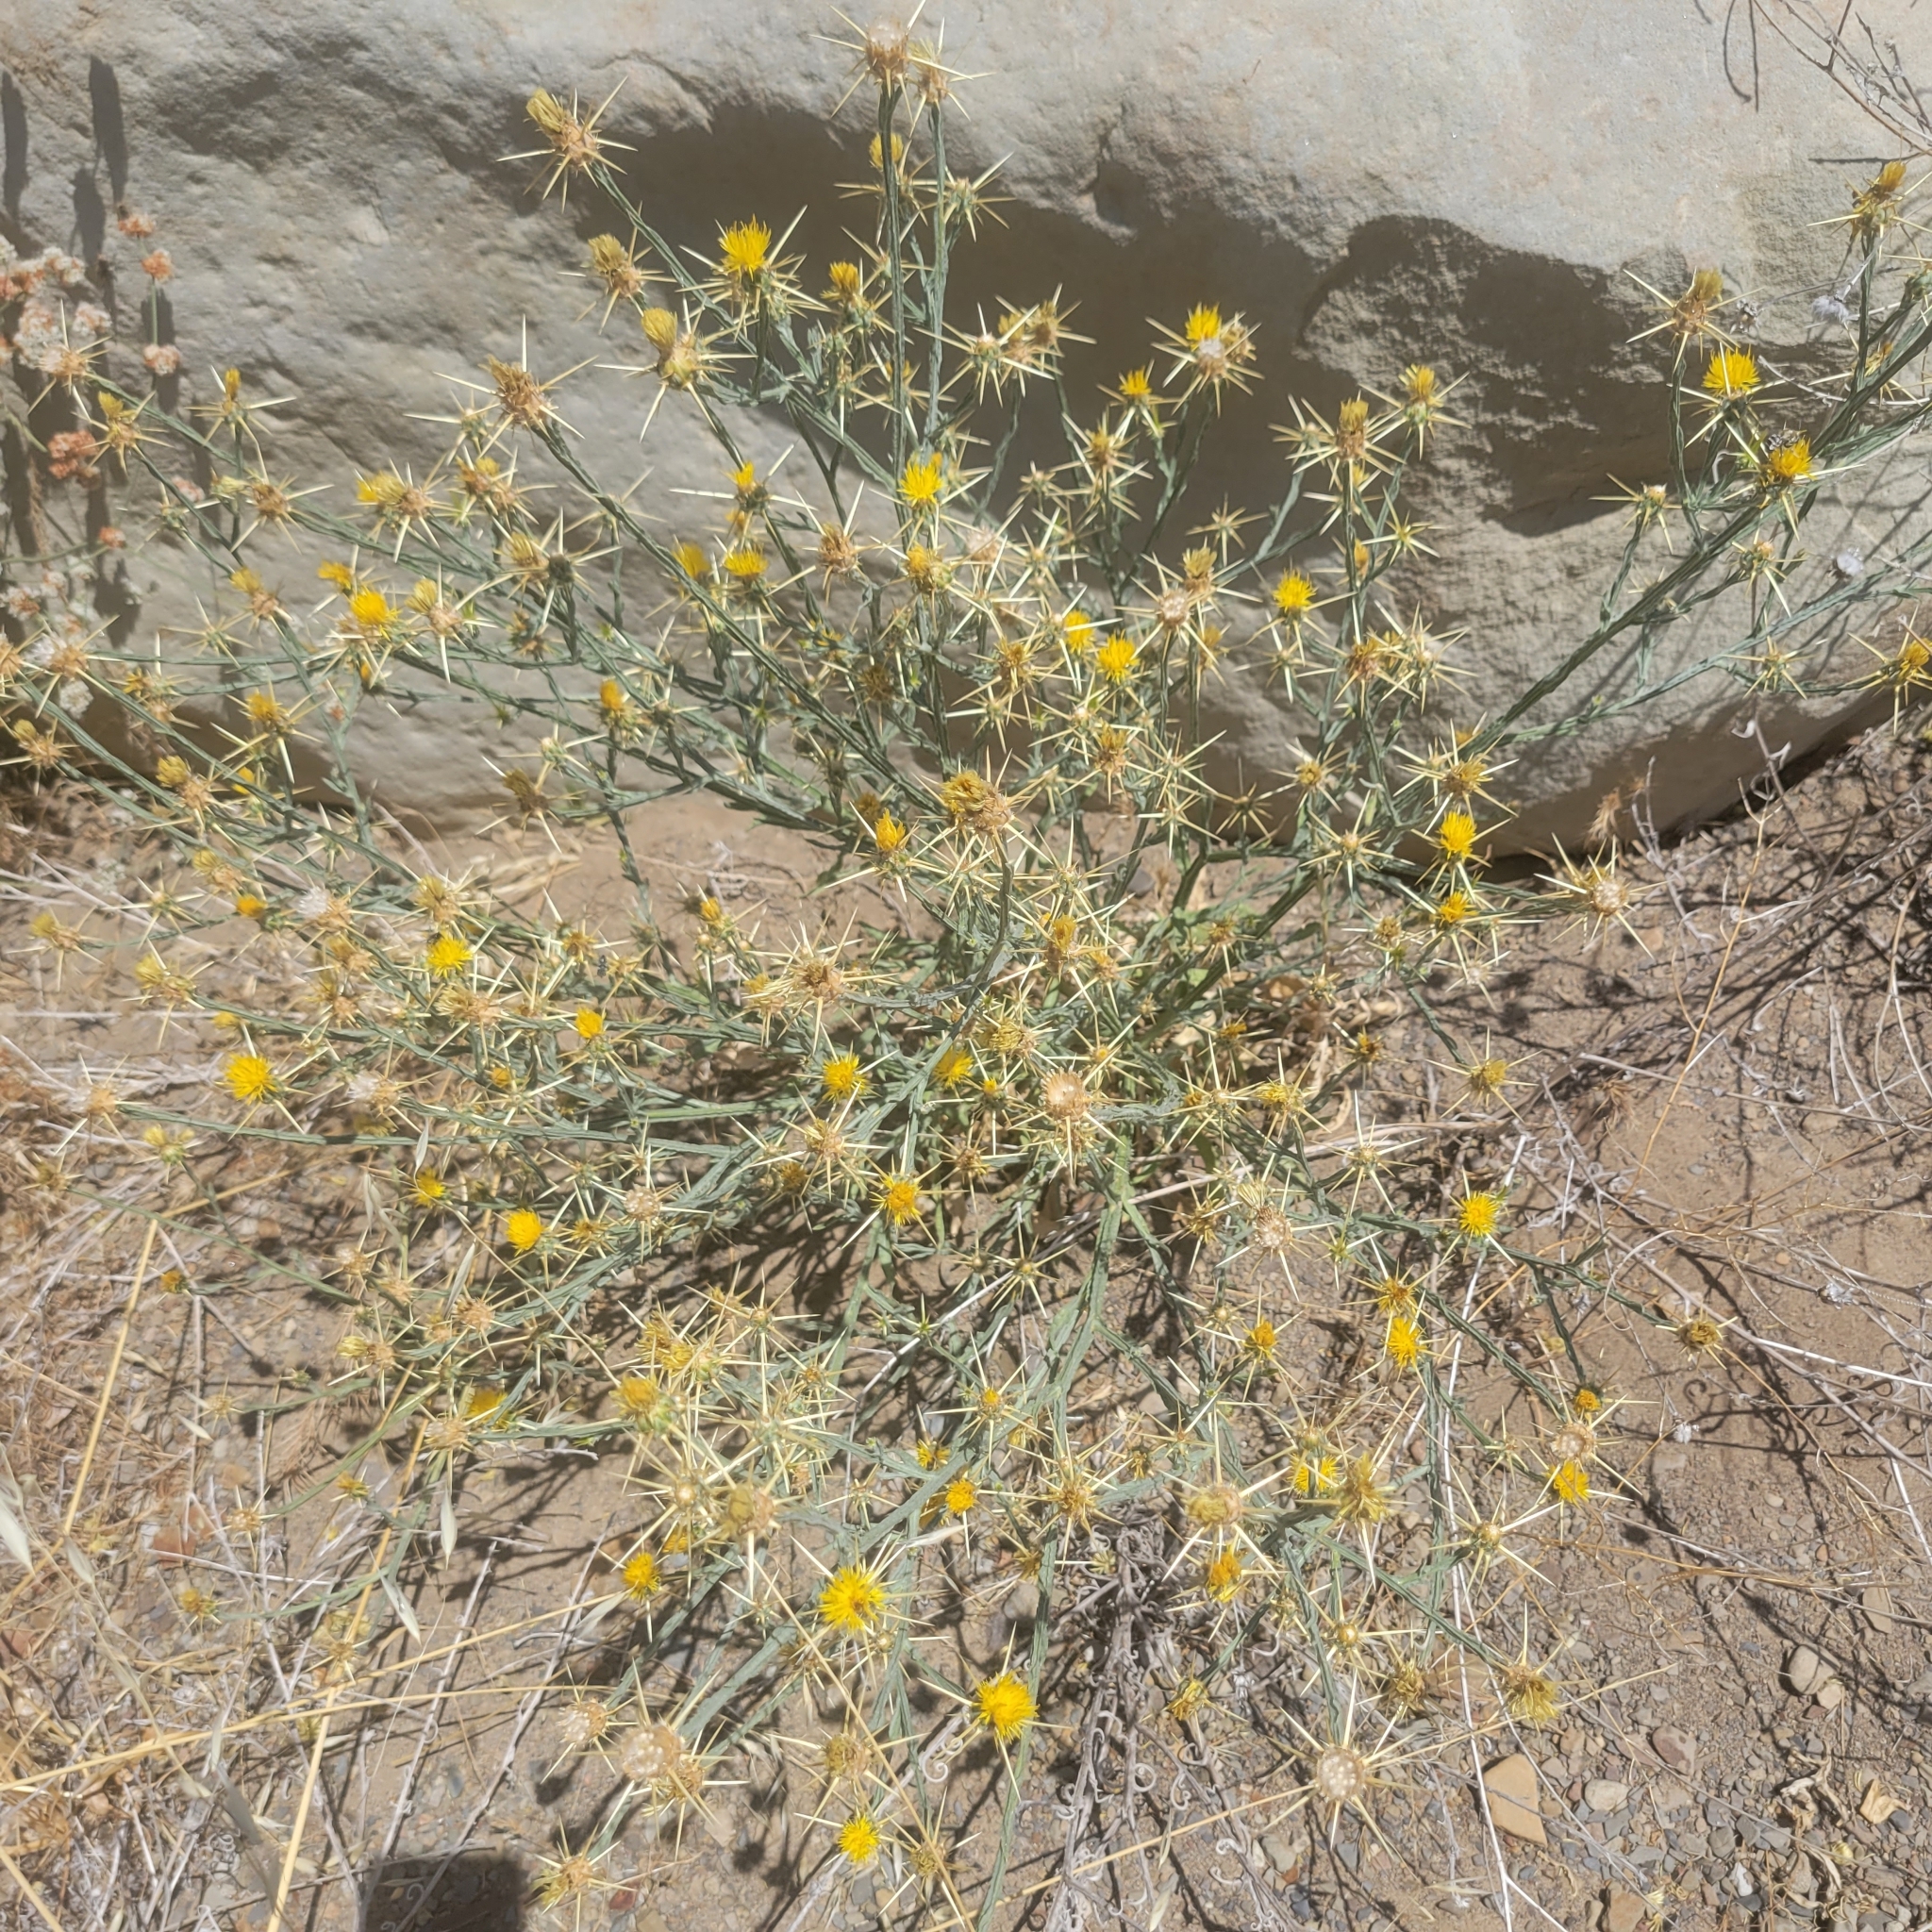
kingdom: Plantae
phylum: Tracheophyta
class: Magnoliopsida
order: Asterales
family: Asteraceae
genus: Centaurea
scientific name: Centaurea solstitialis
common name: Yellow star-thistle
